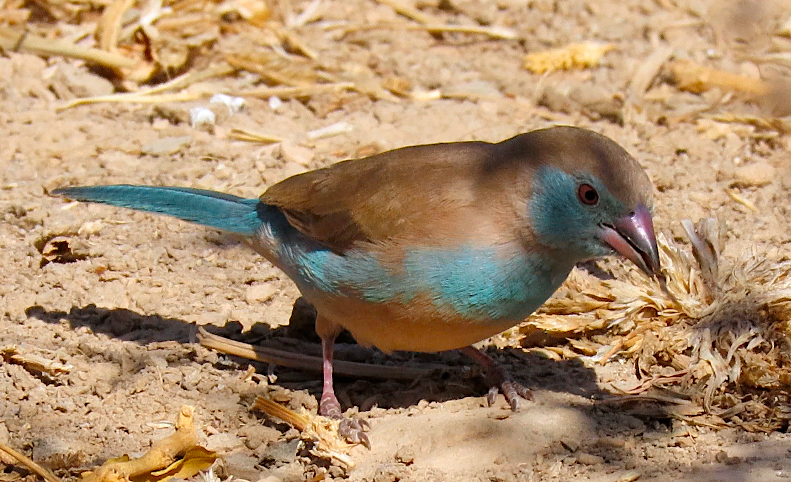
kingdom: Animalia
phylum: Chordata
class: Aves
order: Passeriformes
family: Estrildidae
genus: Uraeginthus
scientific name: Uraeginthus bengalus
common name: Red-cheeked cordon-bleu
